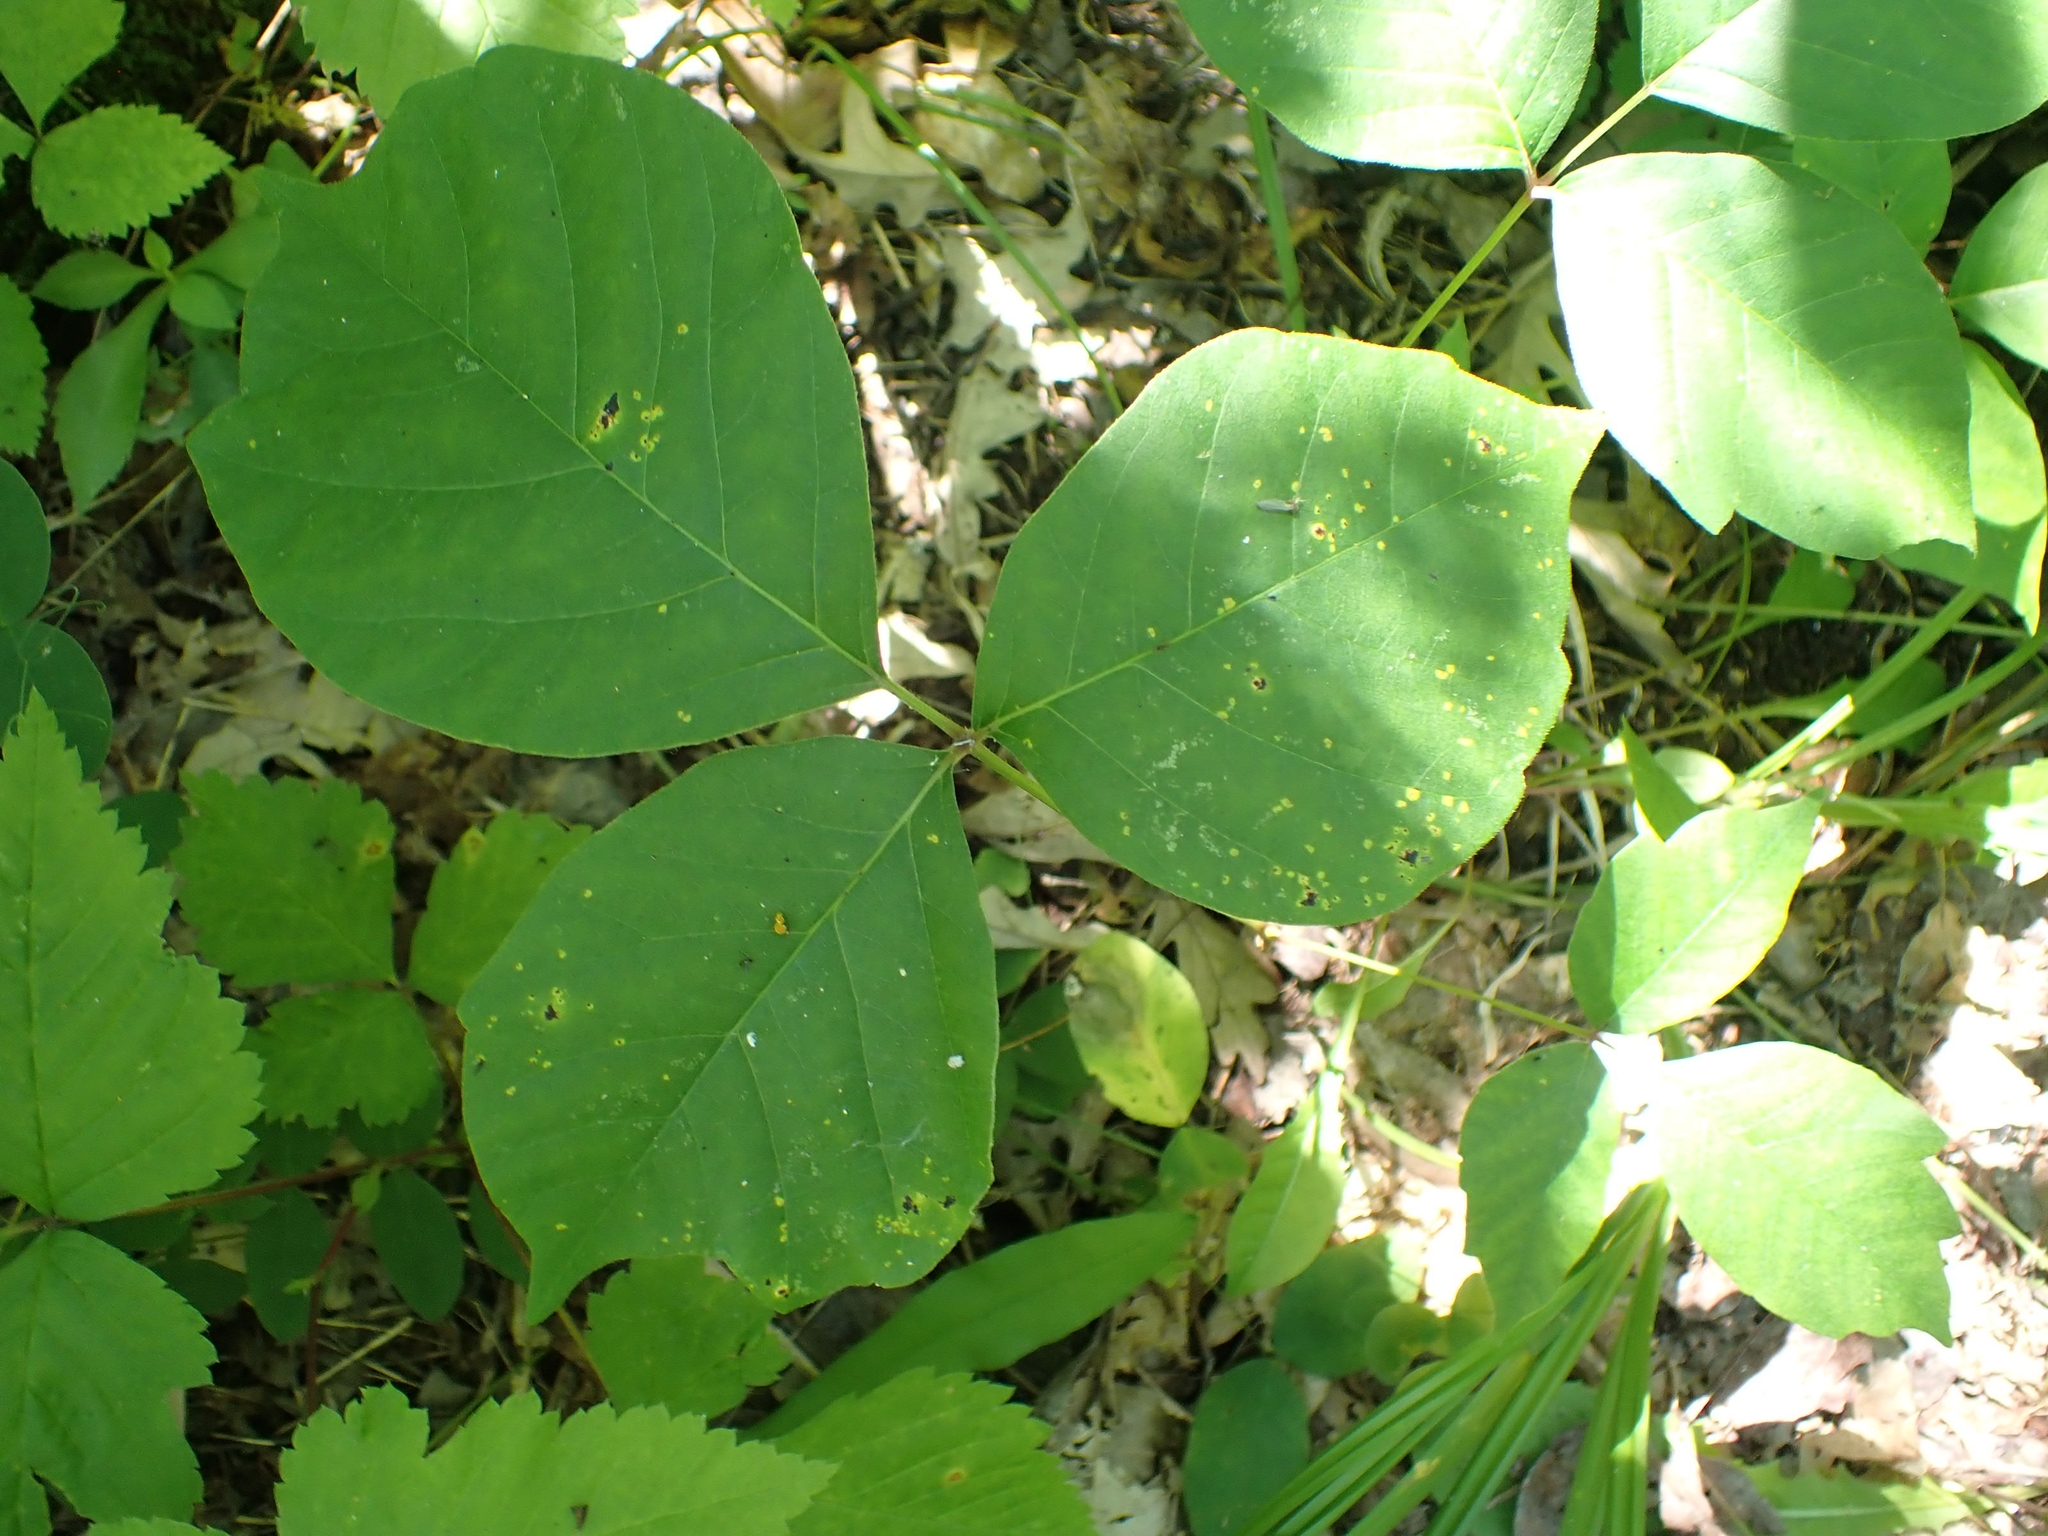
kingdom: Plantae
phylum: Tracheophyta
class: Magnoliopsida
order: Sapindales
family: Anacardiaceae
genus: Toxicodendron
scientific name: Toxicodendron rydbergii
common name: Rydberg's poison-ivy
